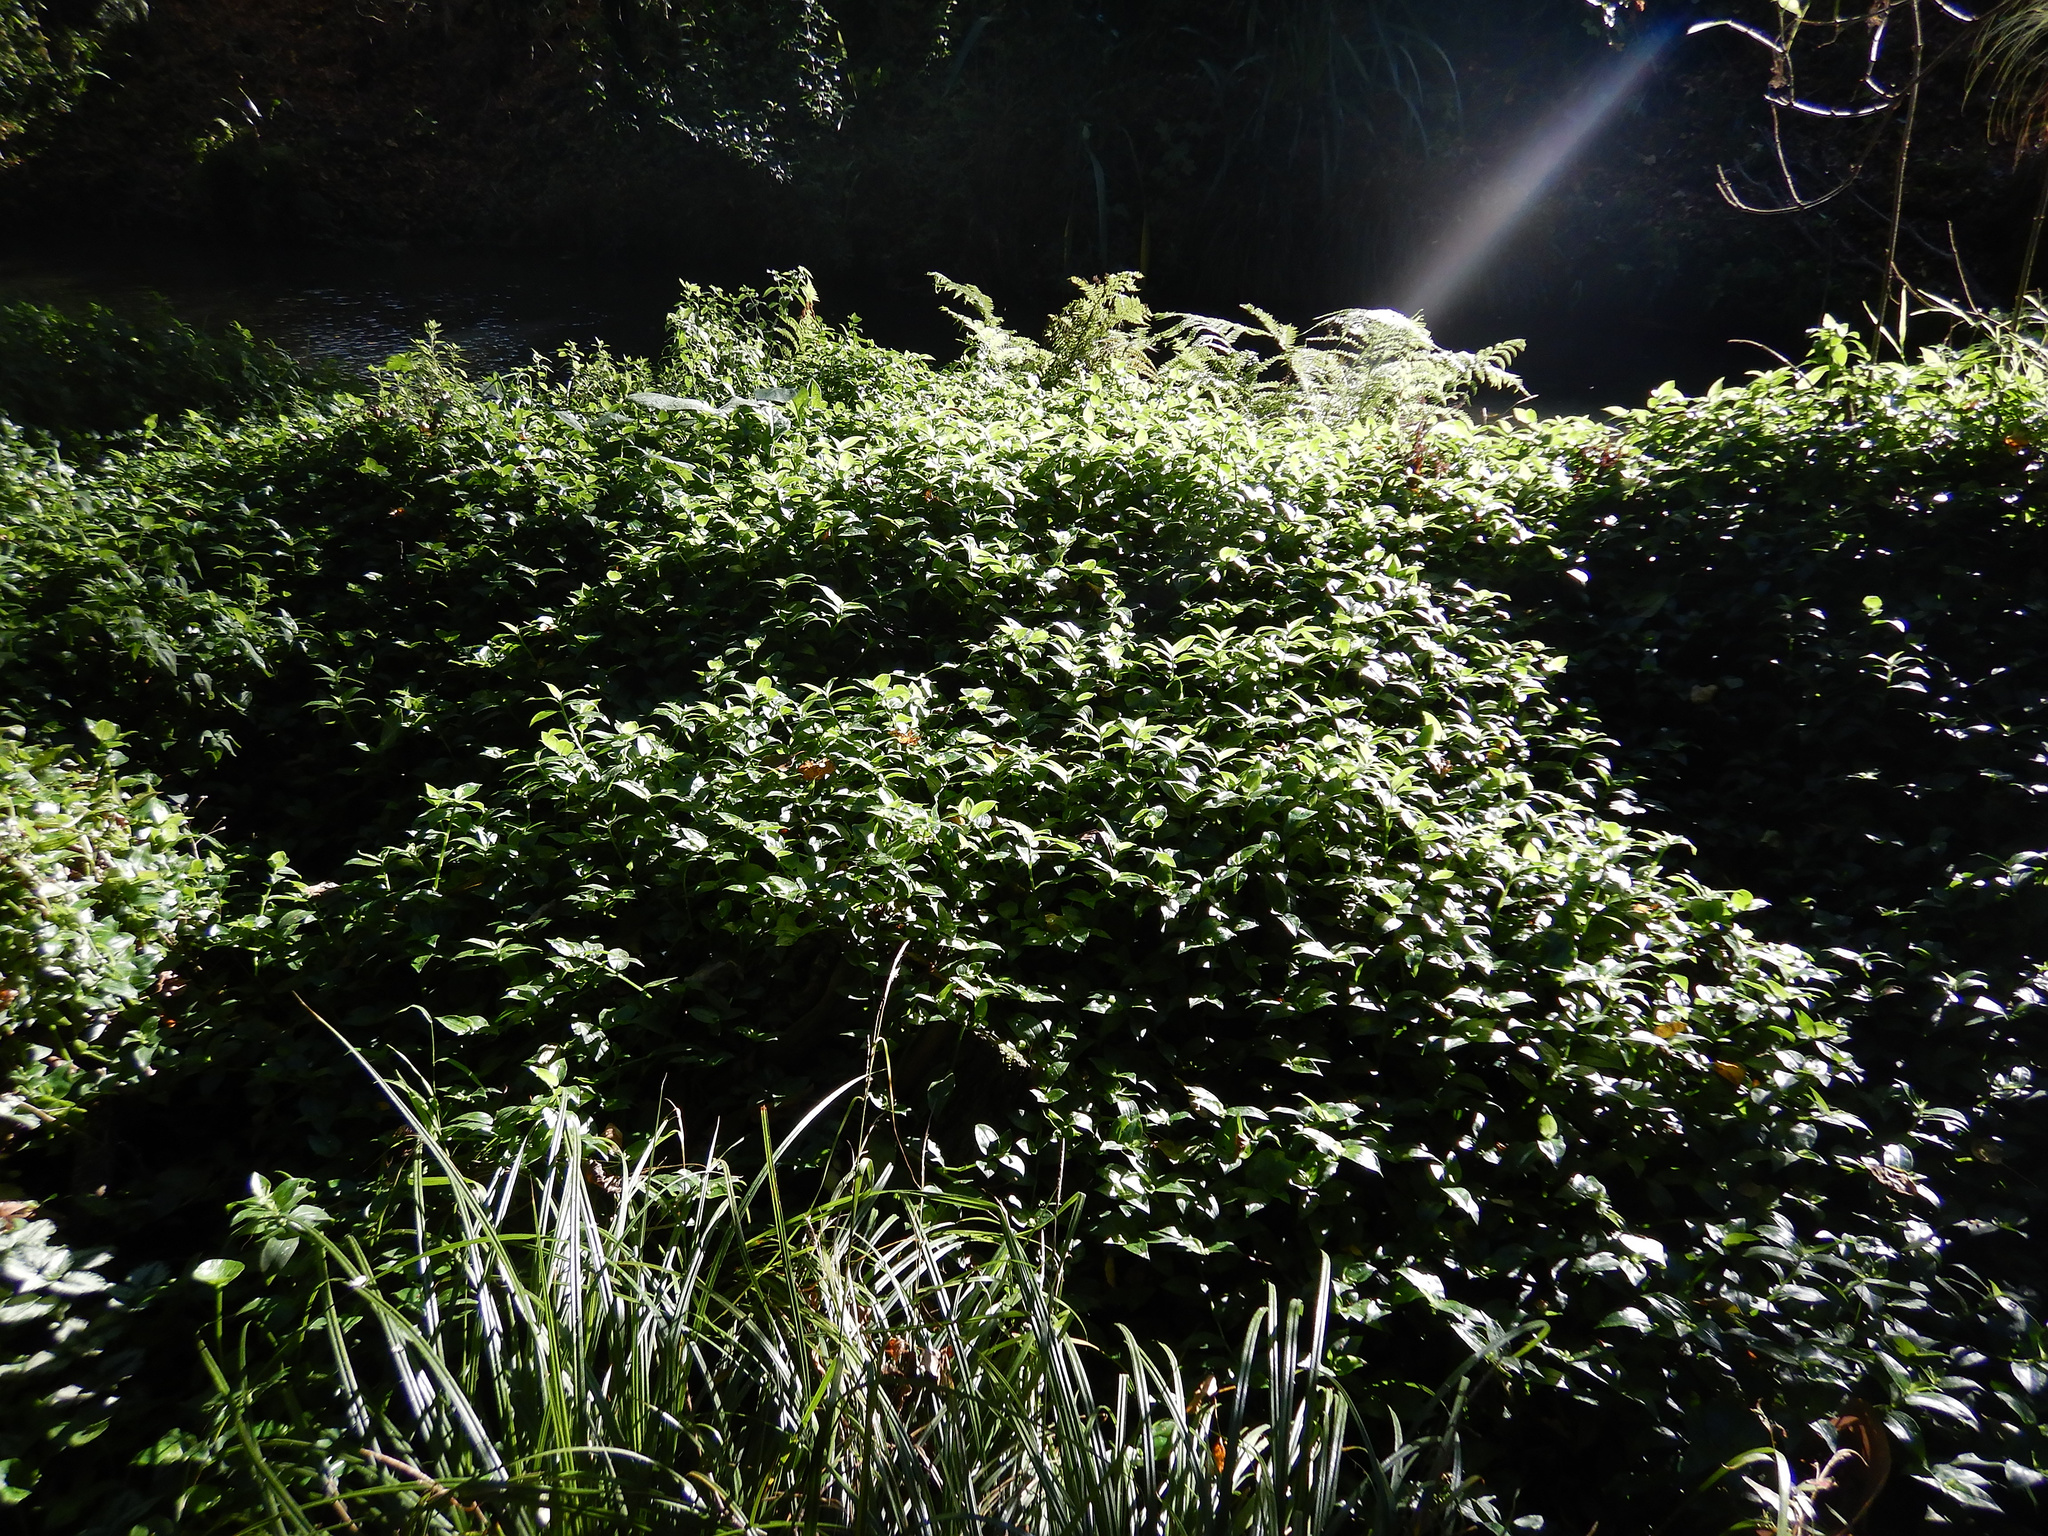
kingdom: Plantae
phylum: Tracheophyta
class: Liliopsida
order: Commelinales
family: Commelinaceae
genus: Tradescantia
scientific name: Tradescantia fluminensis
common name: Wandering-jew
